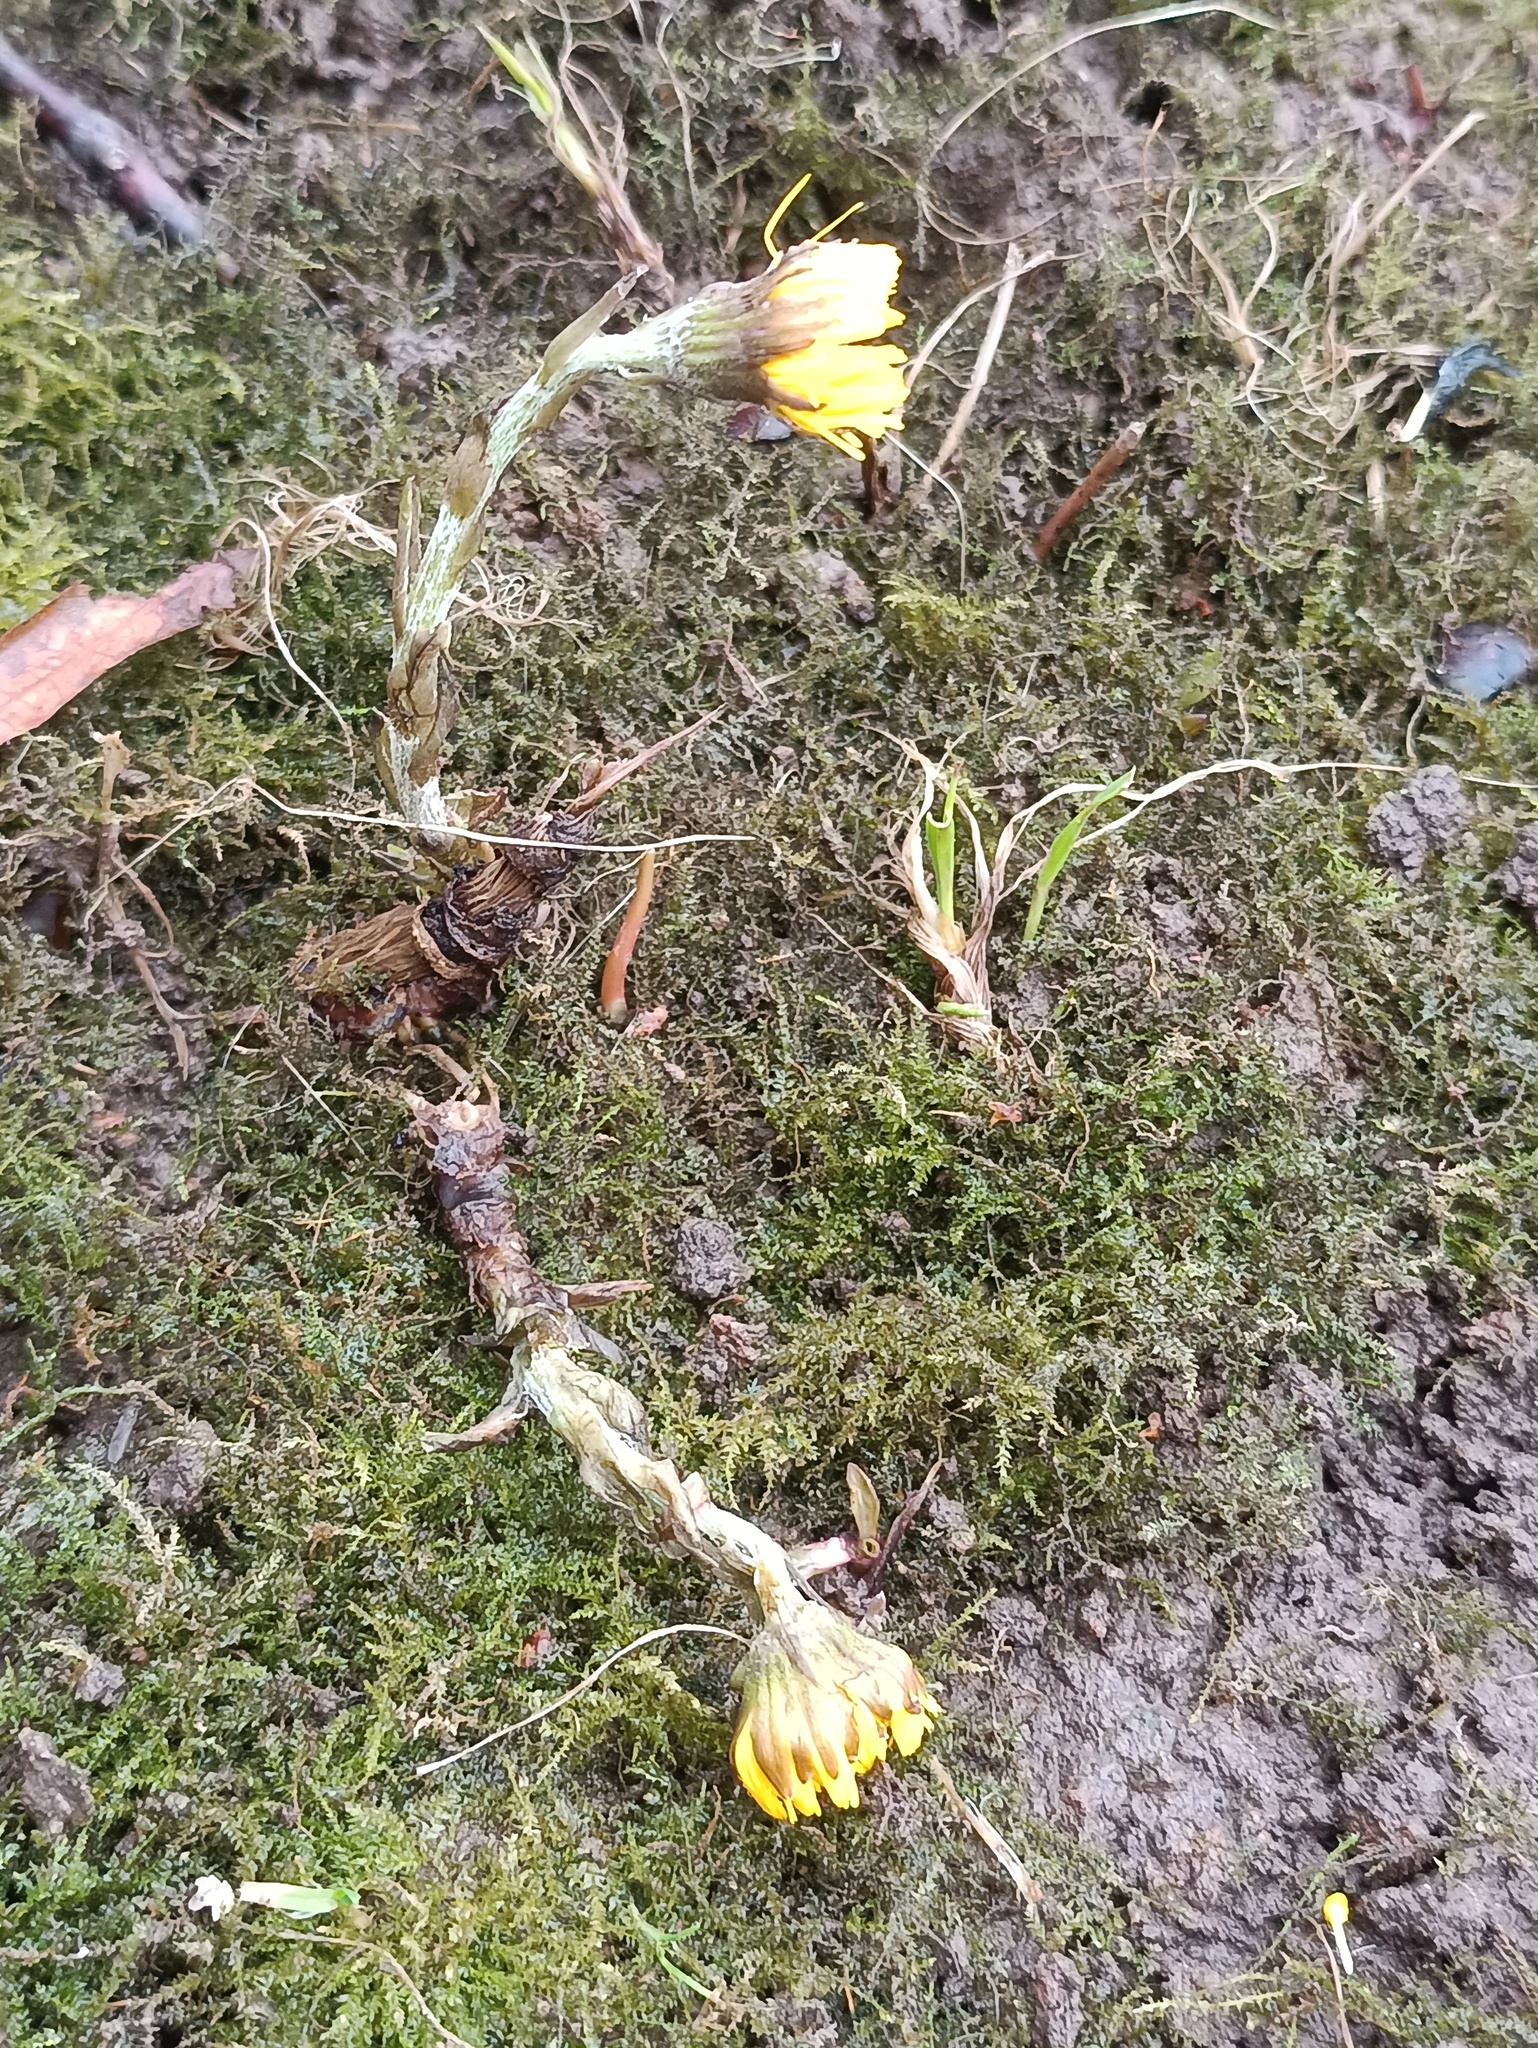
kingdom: Plantae
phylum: Tracheophyta
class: Magnoliopsida
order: Asterales
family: Asteraceae
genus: Tussilago
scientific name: Tussilago farfara
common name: Coltsfoot
